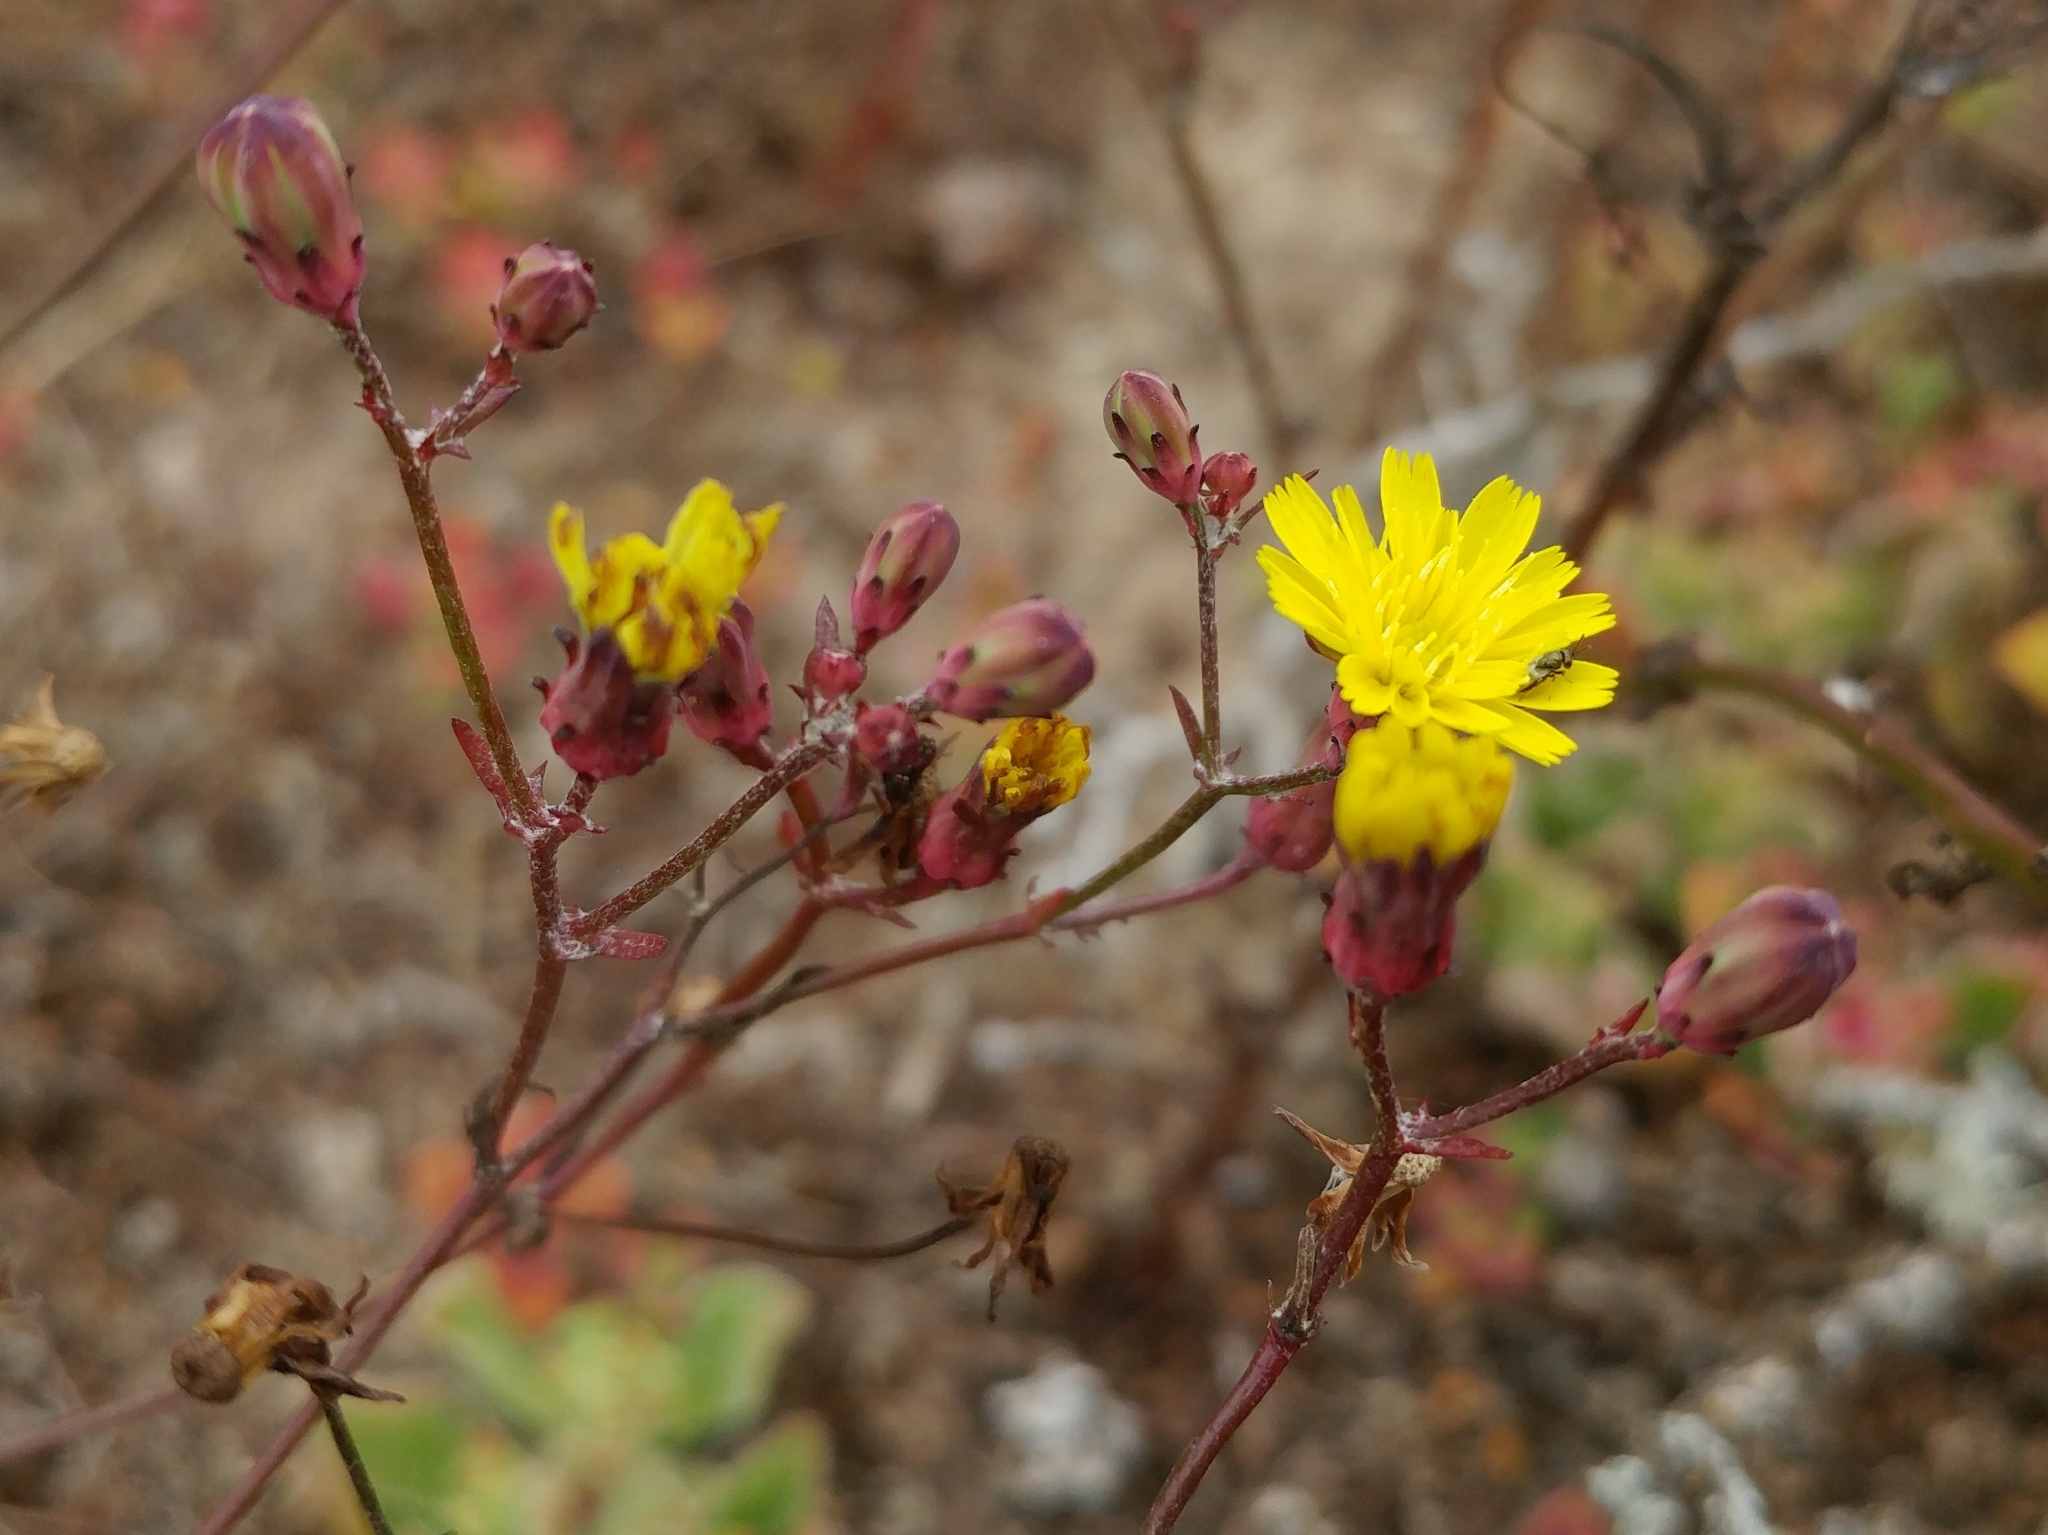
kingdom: Plantae
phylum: Tracheophyta
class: Magnoliopsida
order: Asterales
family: Asteraceae
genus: Malacothrix
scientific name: Malacothrix foliosa
